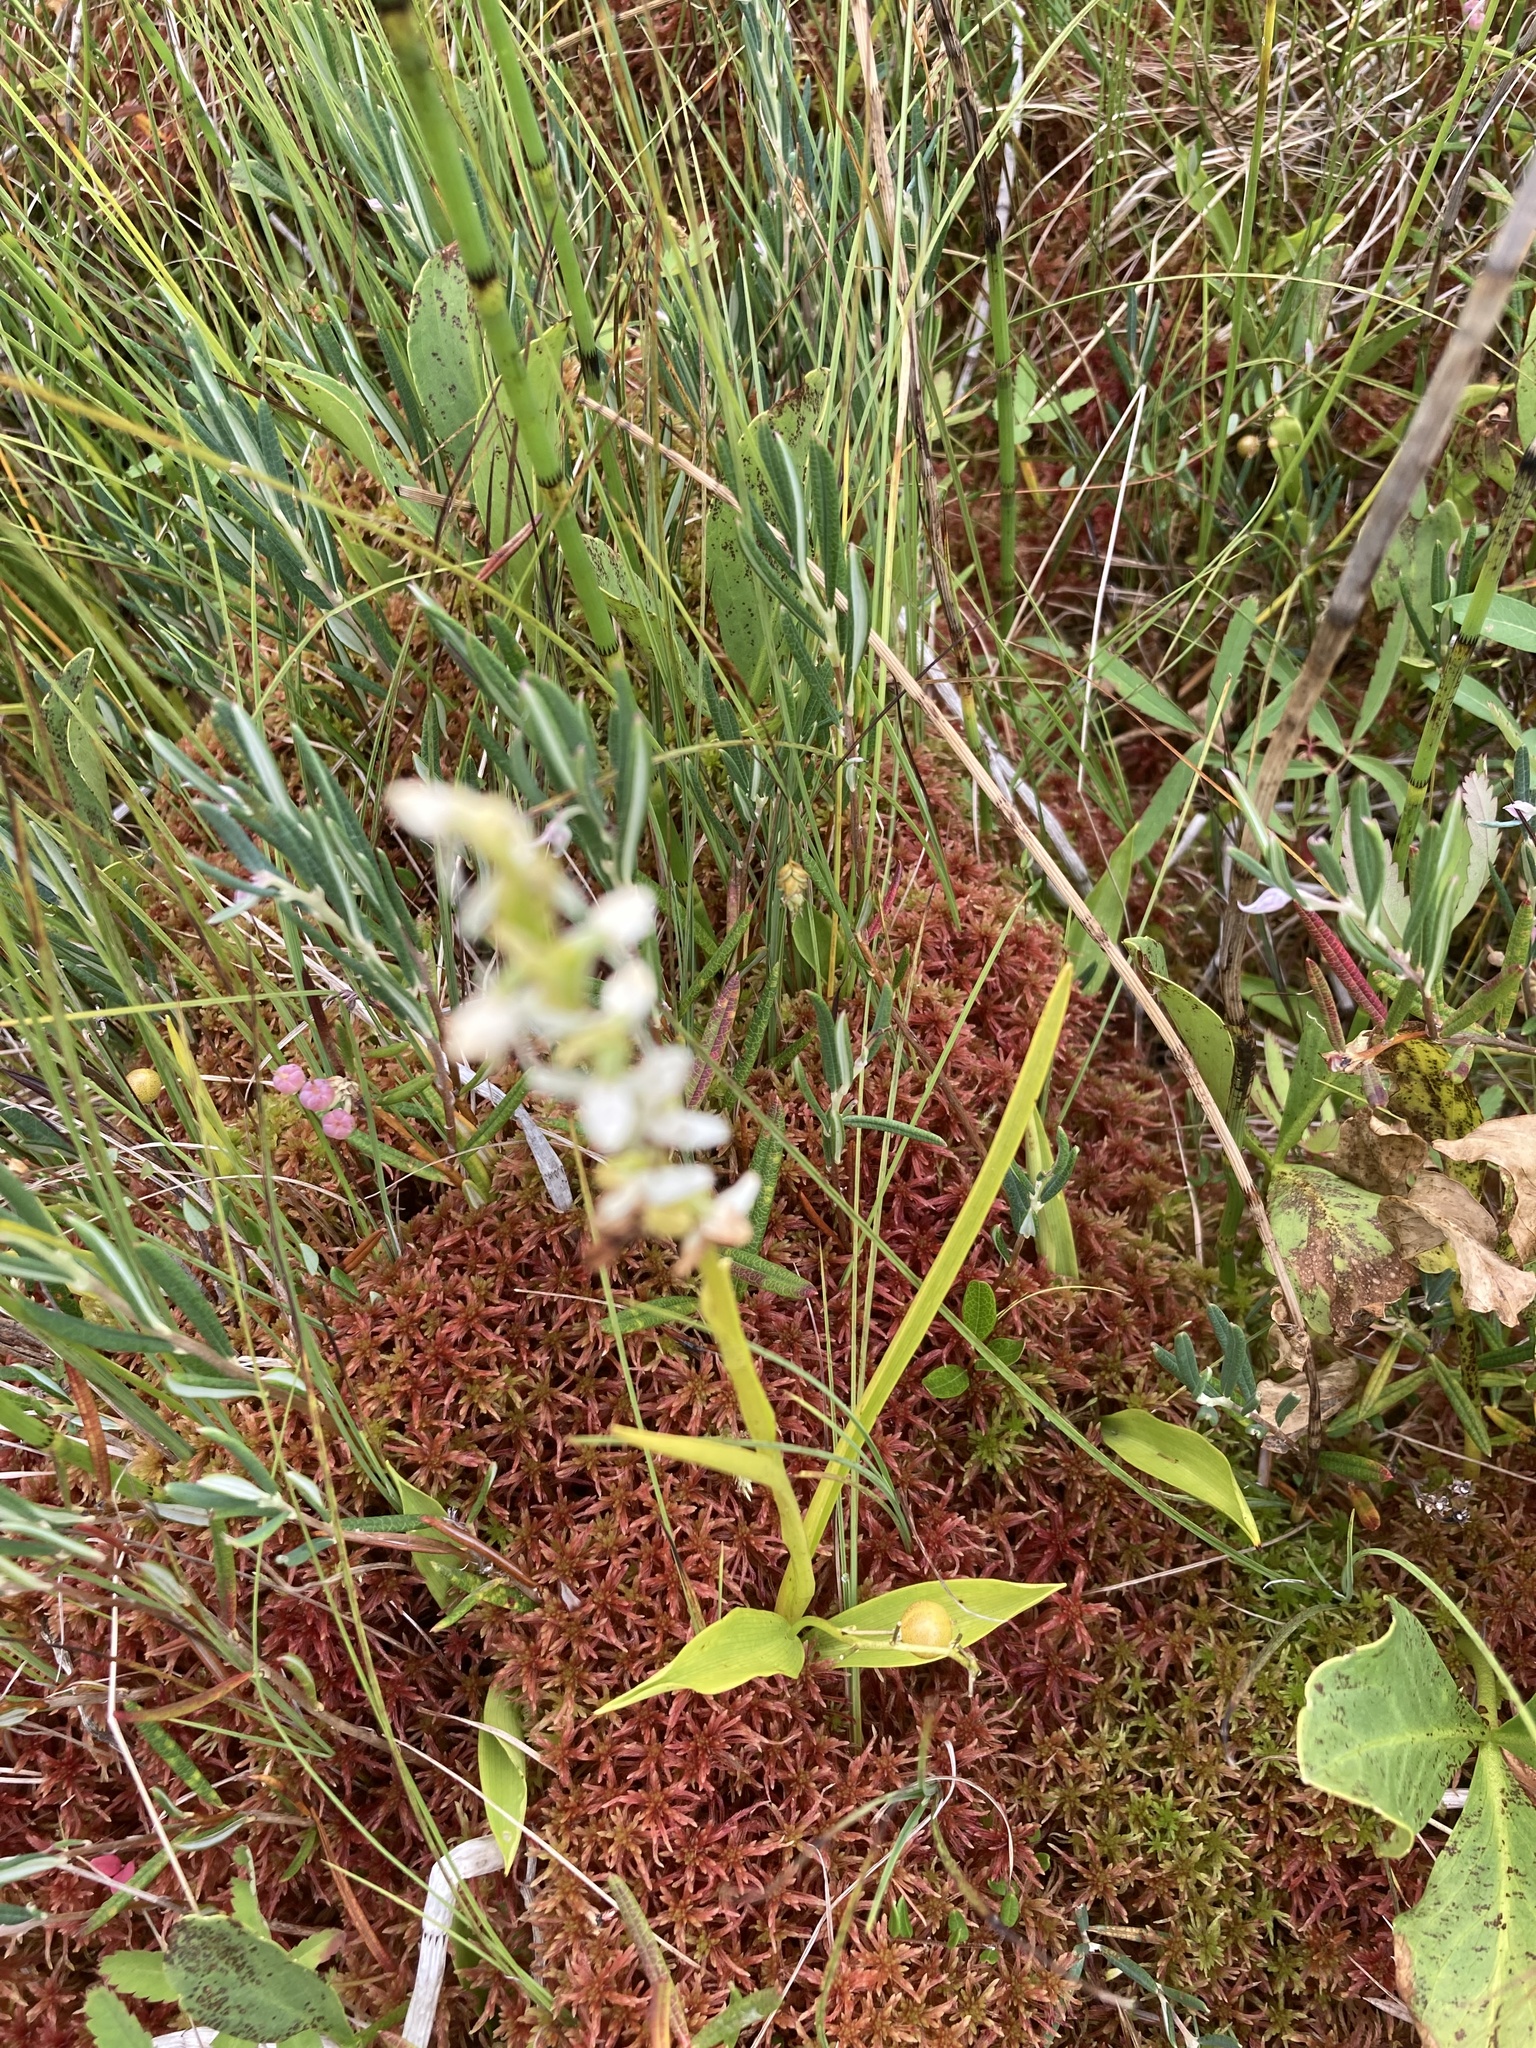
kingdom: Plantae
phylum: Tracheophyta
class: Liliopsida
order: Asparagales
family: Orchidaceae
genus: Platanthera
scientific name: Platanthera dilatata
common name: Bog candles
